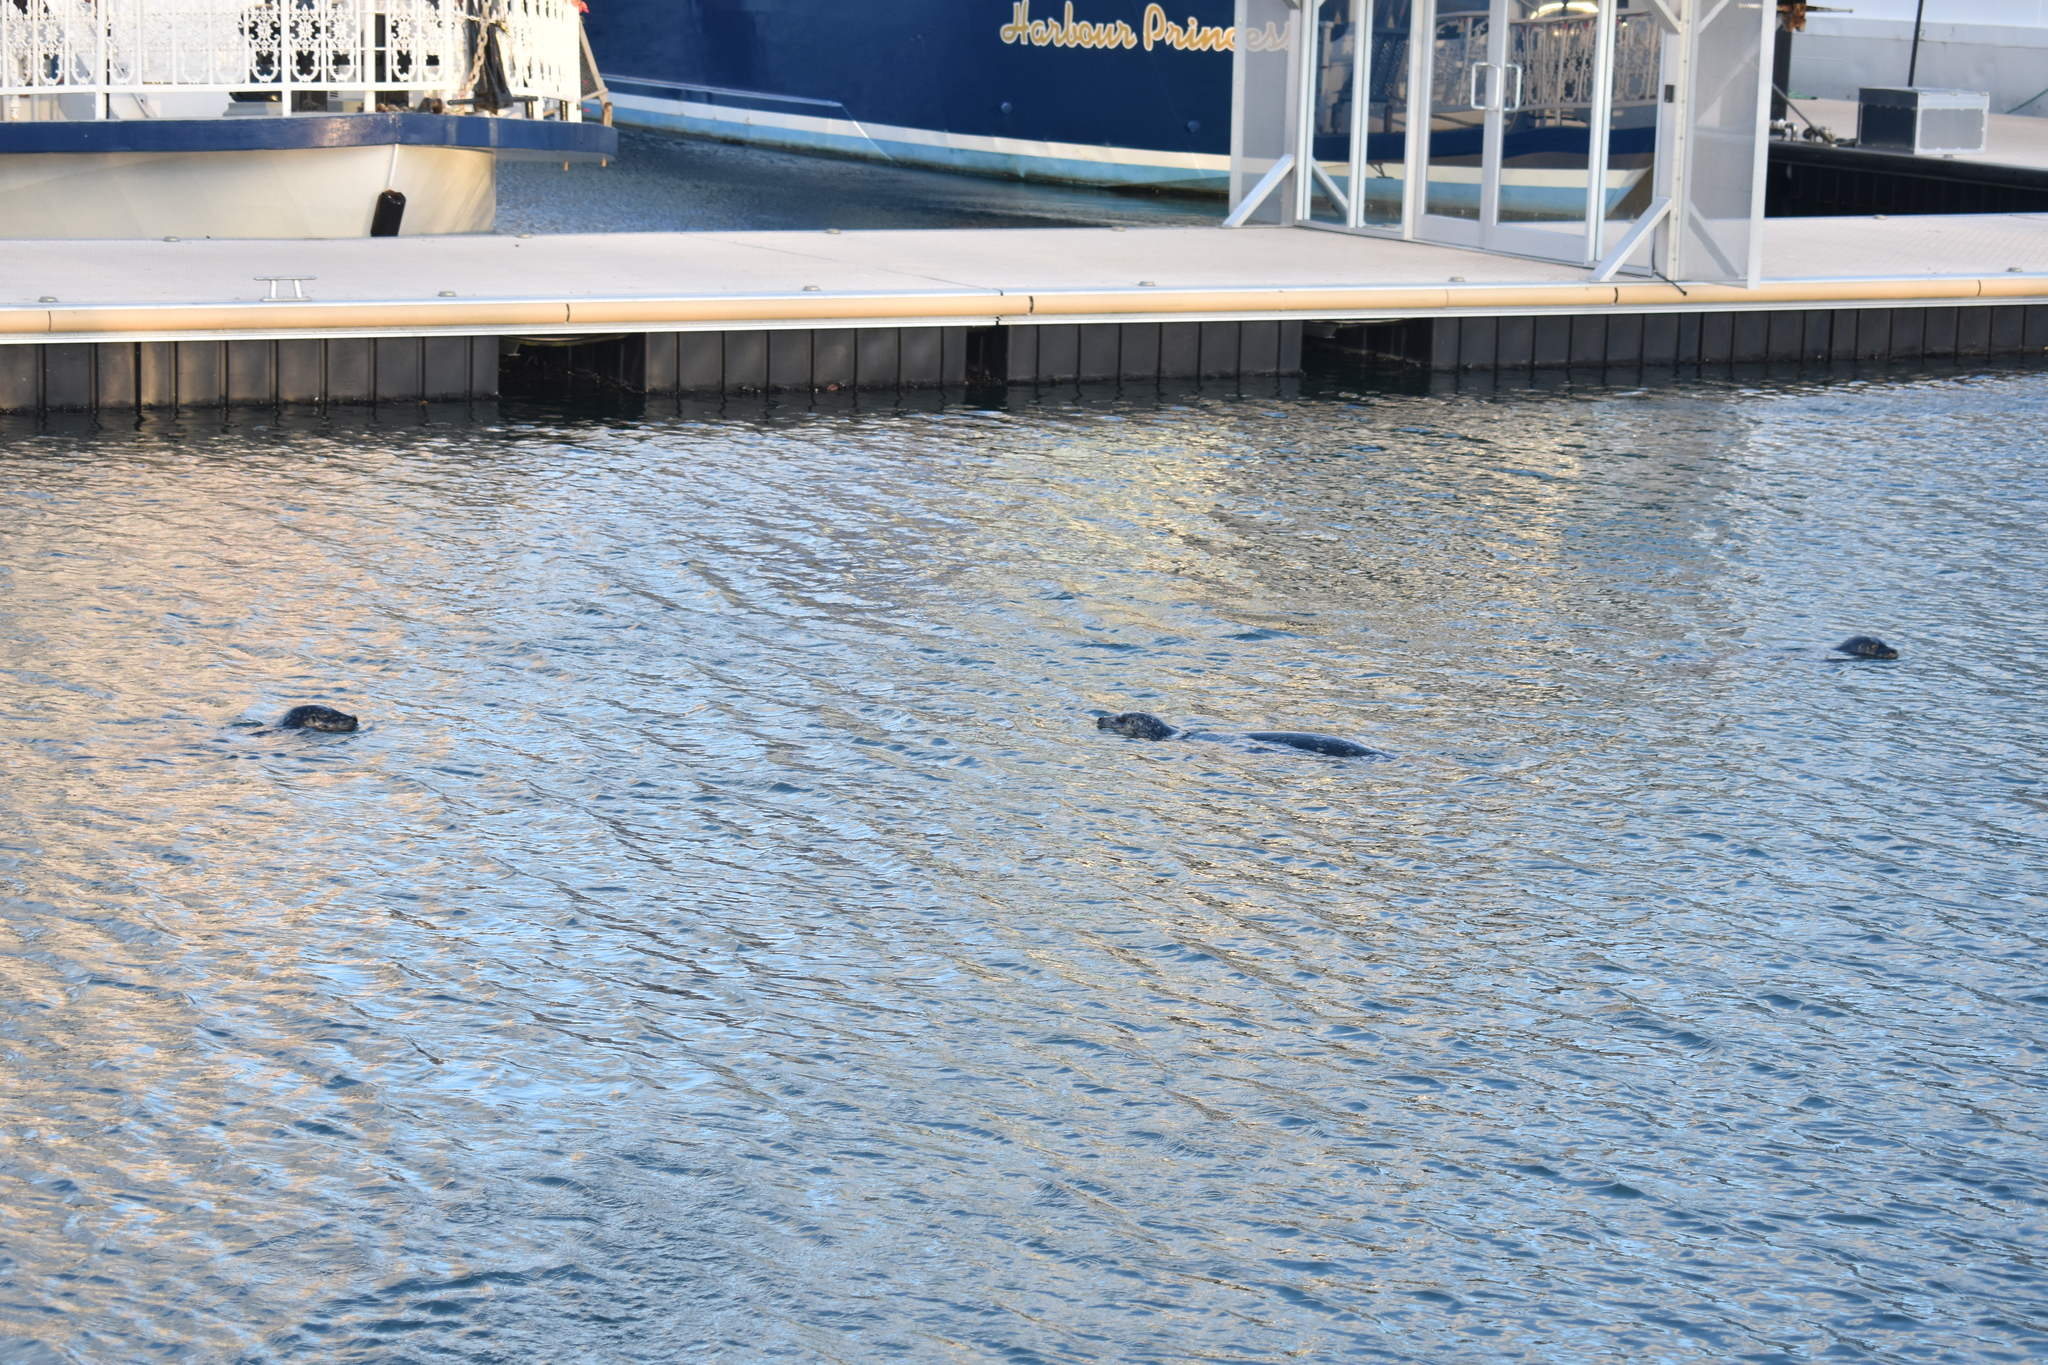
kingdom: Animalia
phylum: Chordata
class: Mammalia
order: Carnivora
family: Phocidae
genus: Phoca
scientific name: Phoca vitulina
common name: Harbor seal
